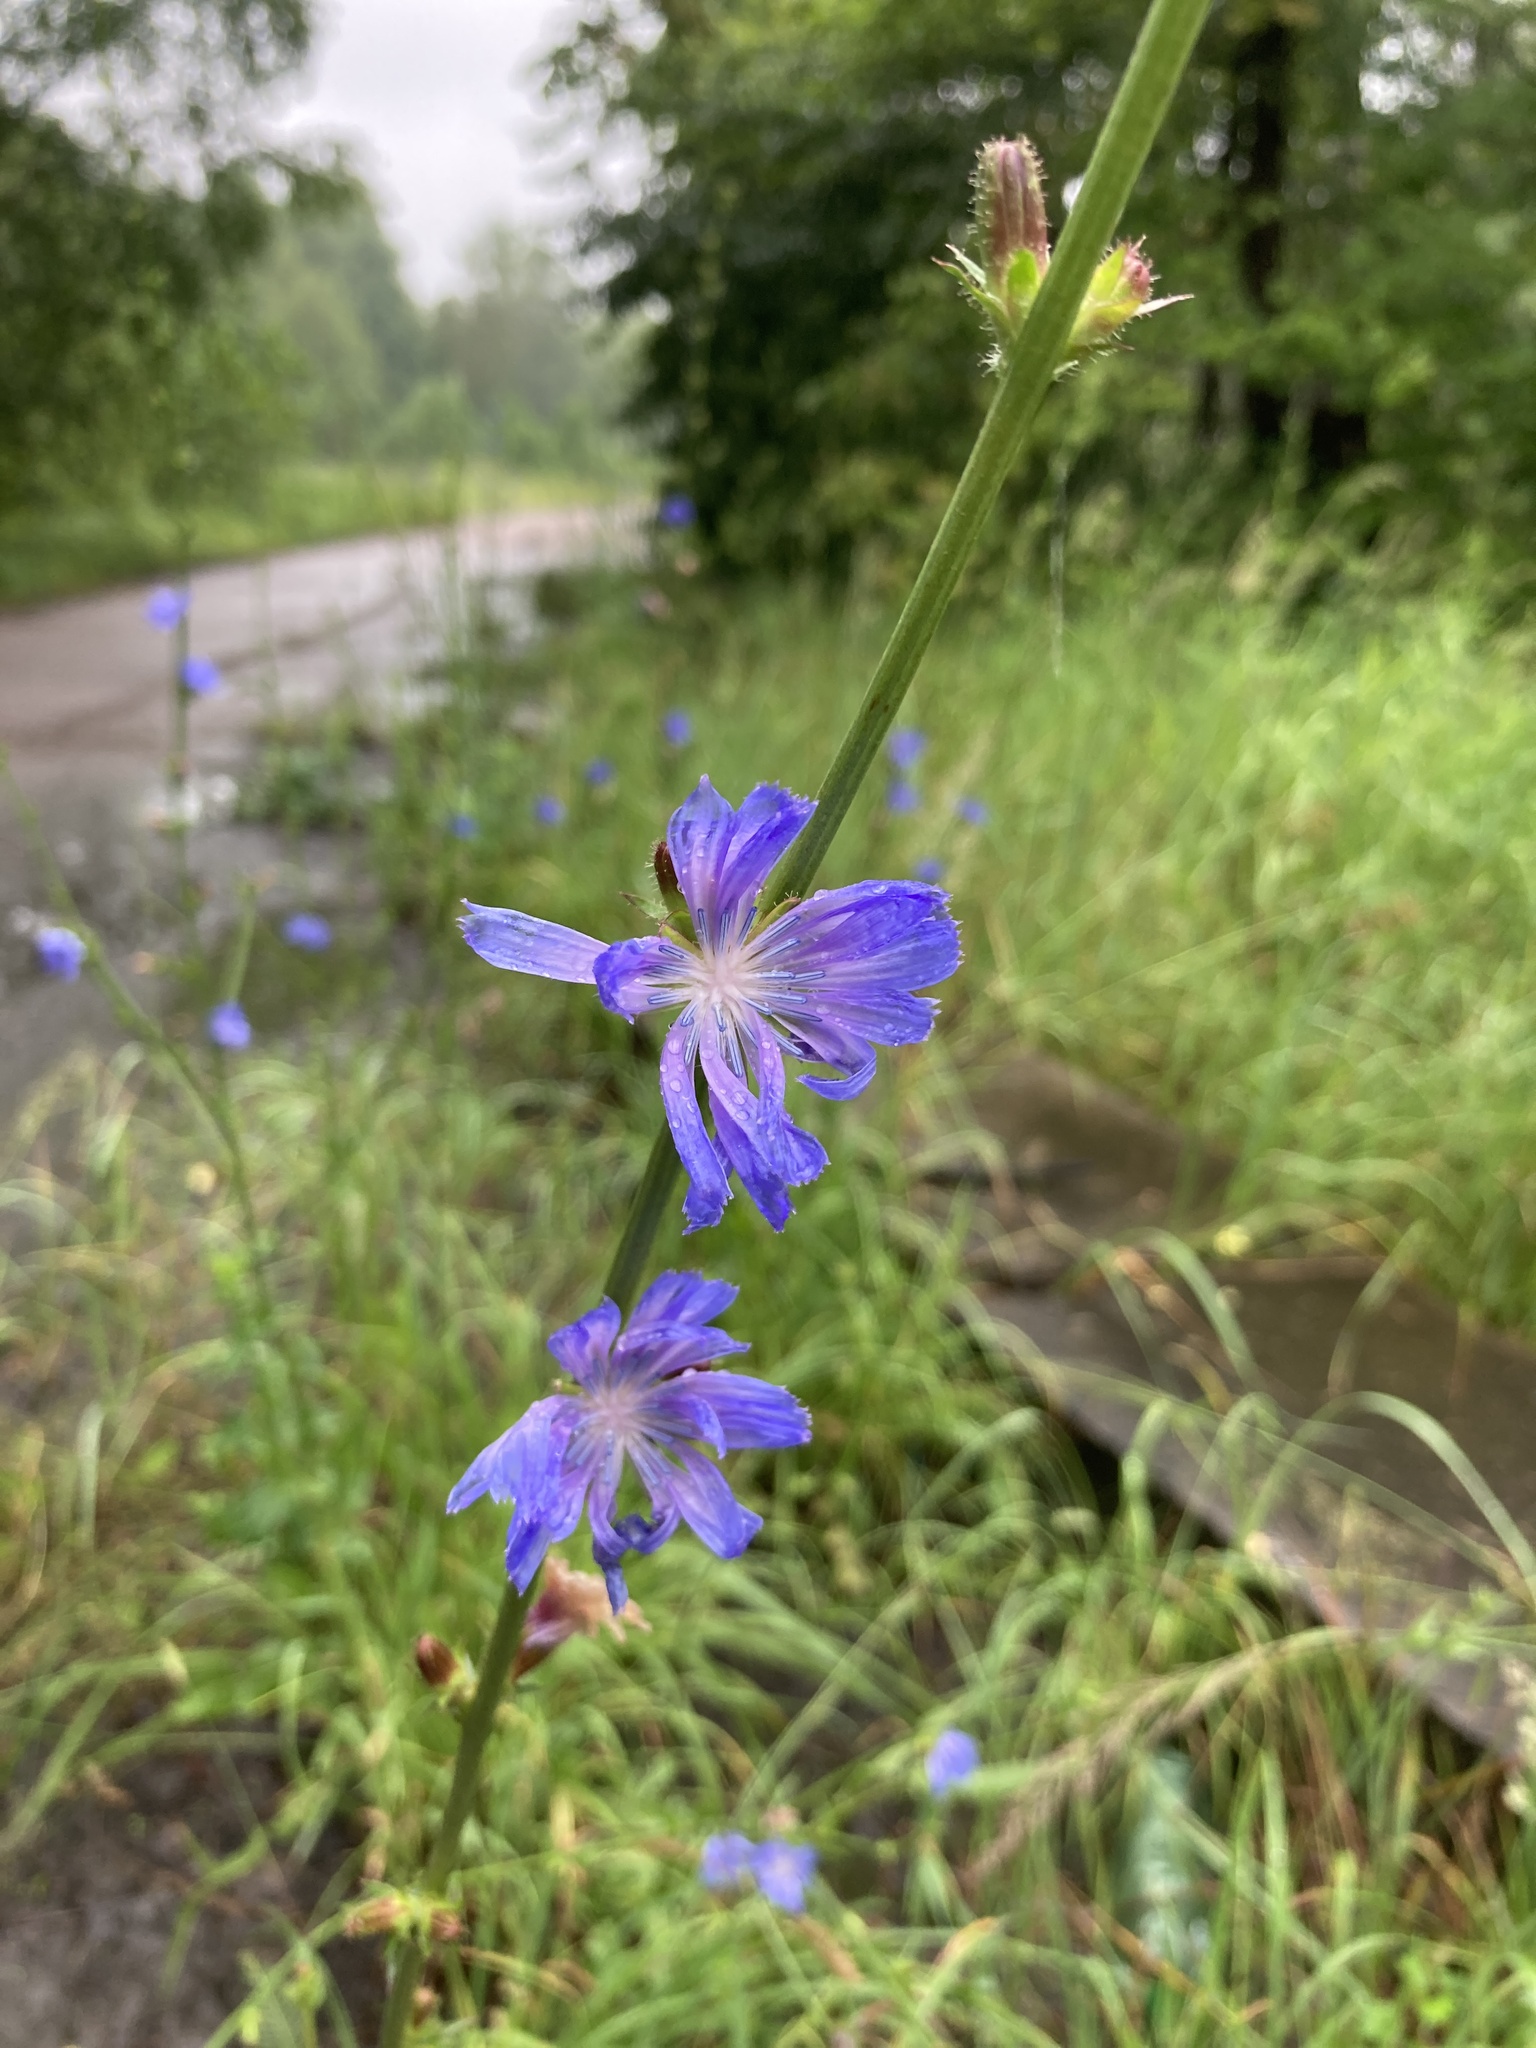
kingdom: Plantae
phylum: Tracheophyta
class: Magnoliopsida
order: Asterales
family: Asteraceae
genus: Cichorium
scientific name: Cichorium intybus
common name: Chicory
